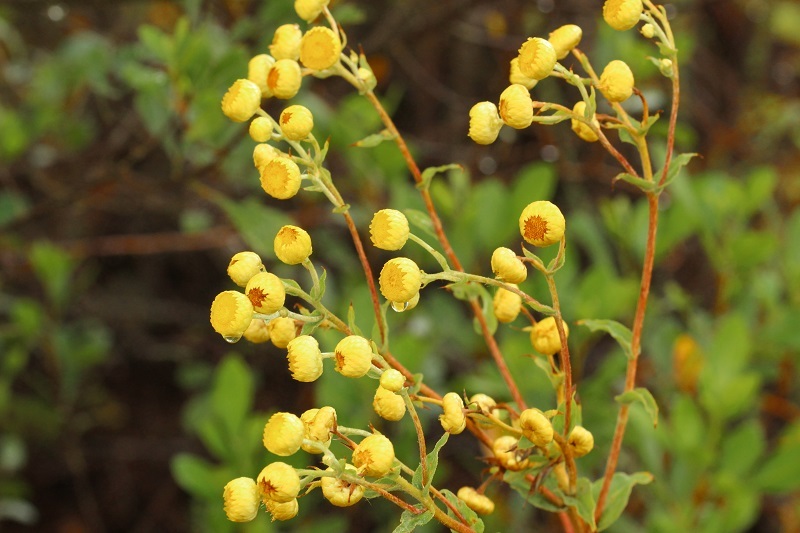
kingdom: Plantae
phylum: Tracheophyta
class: Magnoliopsida
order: Asterales
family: Asteraceae
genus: Helichrysum
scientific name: Helichrysum foetidum
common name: Stinking everlasting
